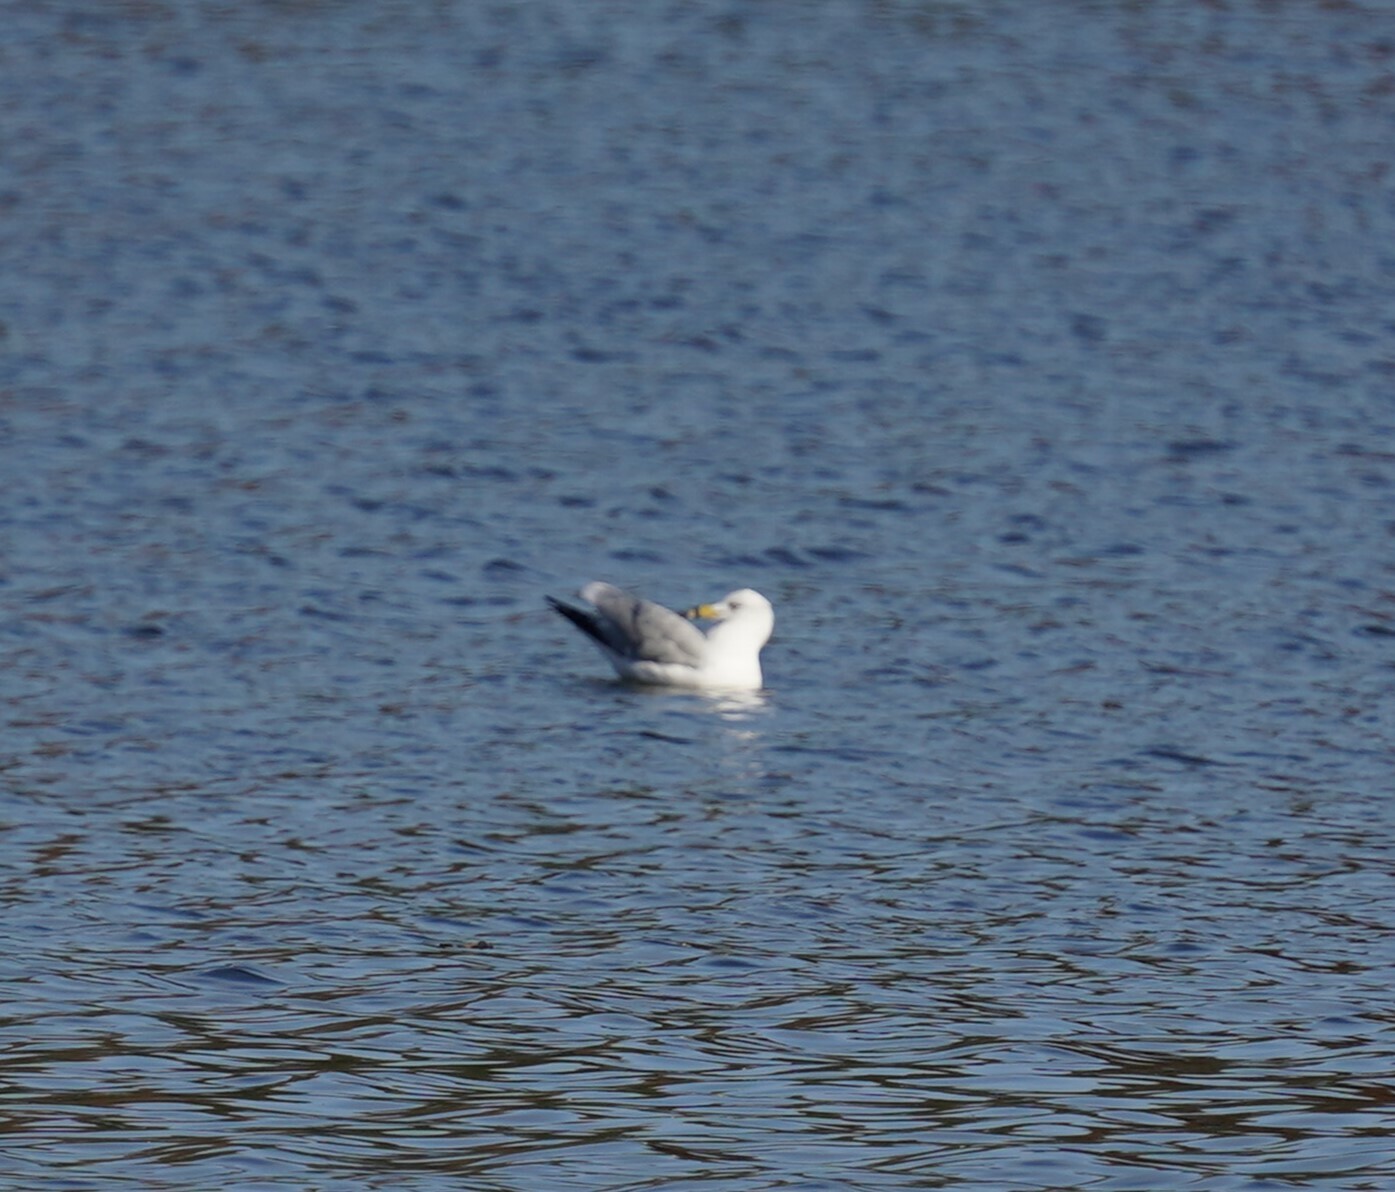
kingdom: Animalia
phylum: Chordata
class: Aves
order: Charadriiformes
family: Laridae
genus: Larus
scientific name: Larus delawarensis
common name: Ring-billed gull
